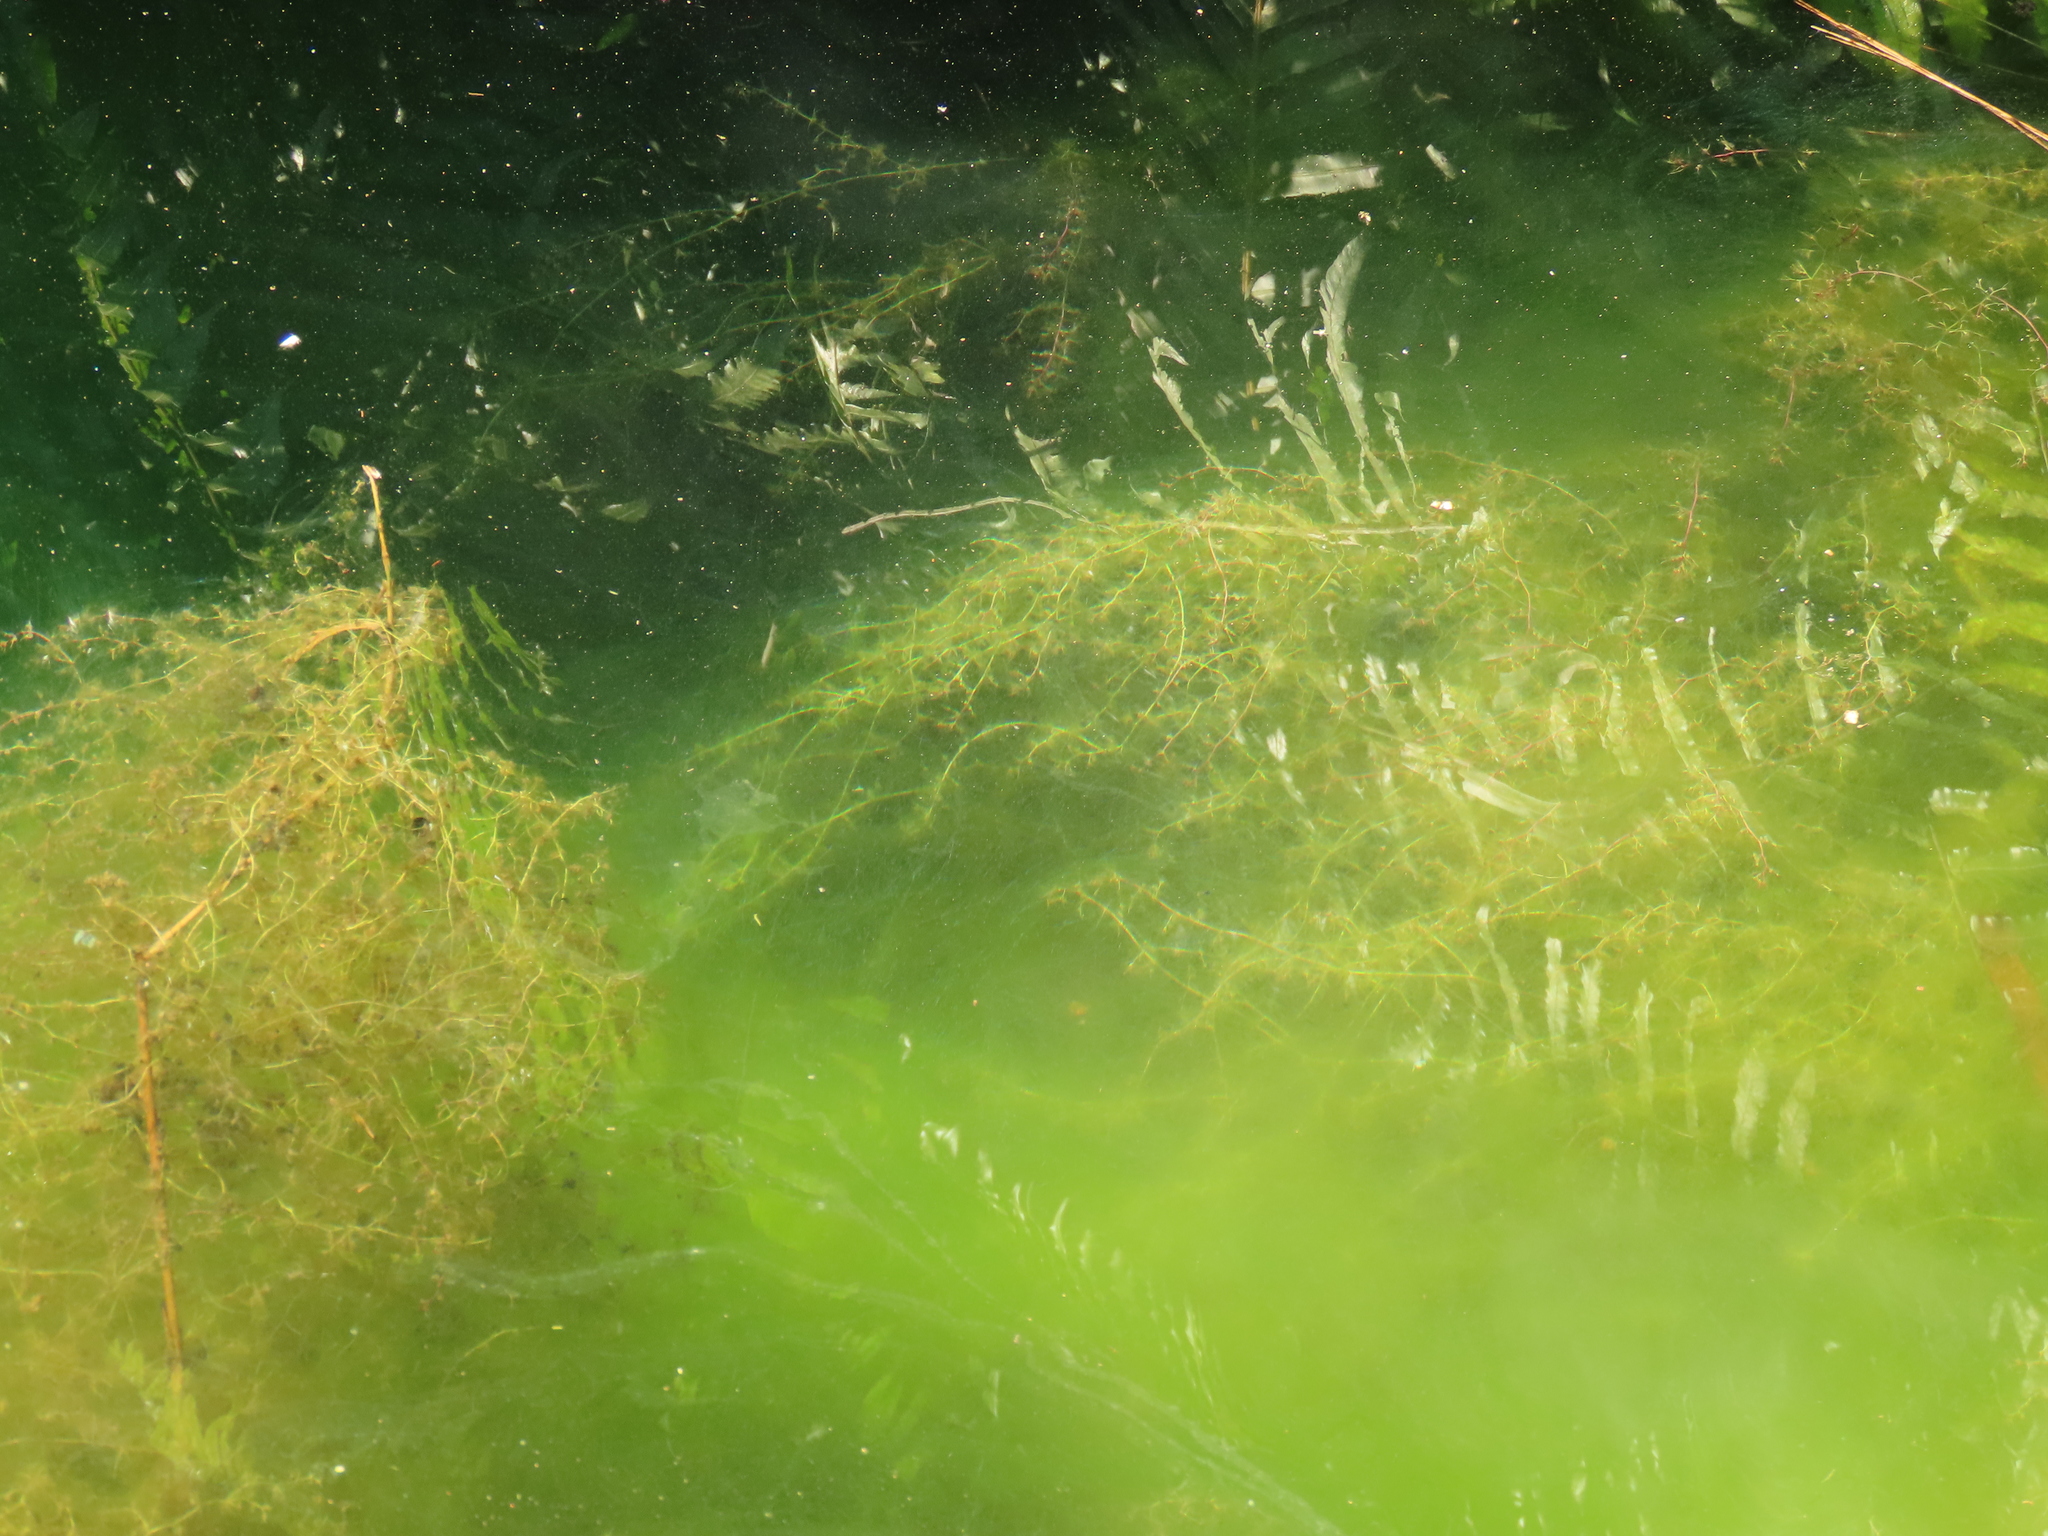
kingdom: Plantae
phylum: Tracheophyta
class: Magnoliopsida
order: Lamiales
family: Lentibulariaceae
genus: Utricularia
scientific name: Utricularia gibba
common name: Humped bladderwort
